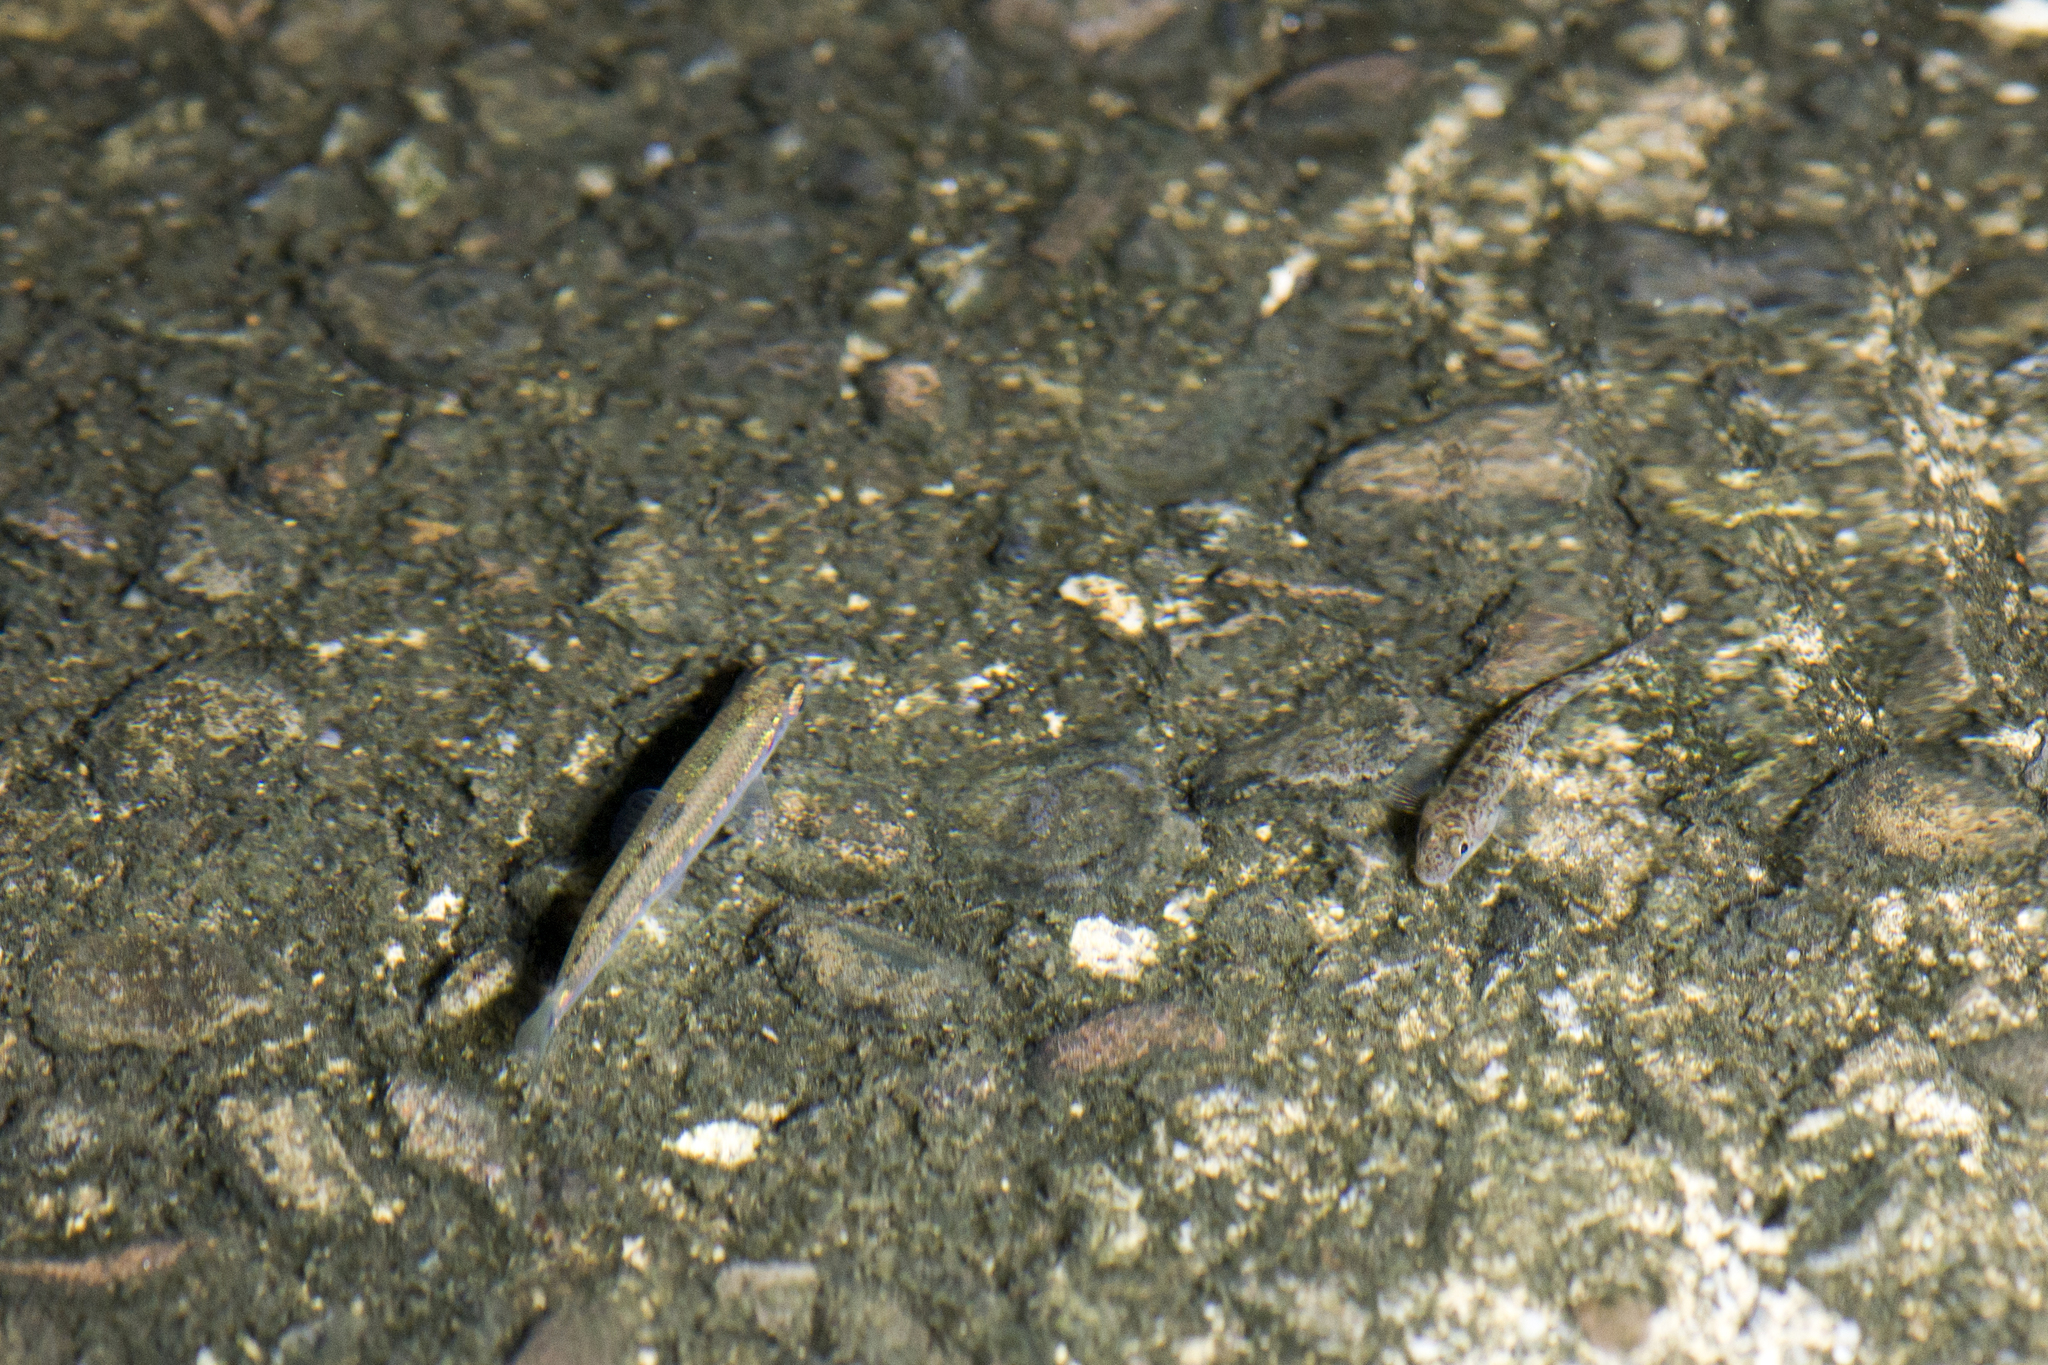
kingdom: Animalia
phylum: Chordata
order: Cypriniformes
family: Cyprinidae
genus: Opsariichthys
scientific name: Opsariichthys evolans
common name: Freshwater minnow
